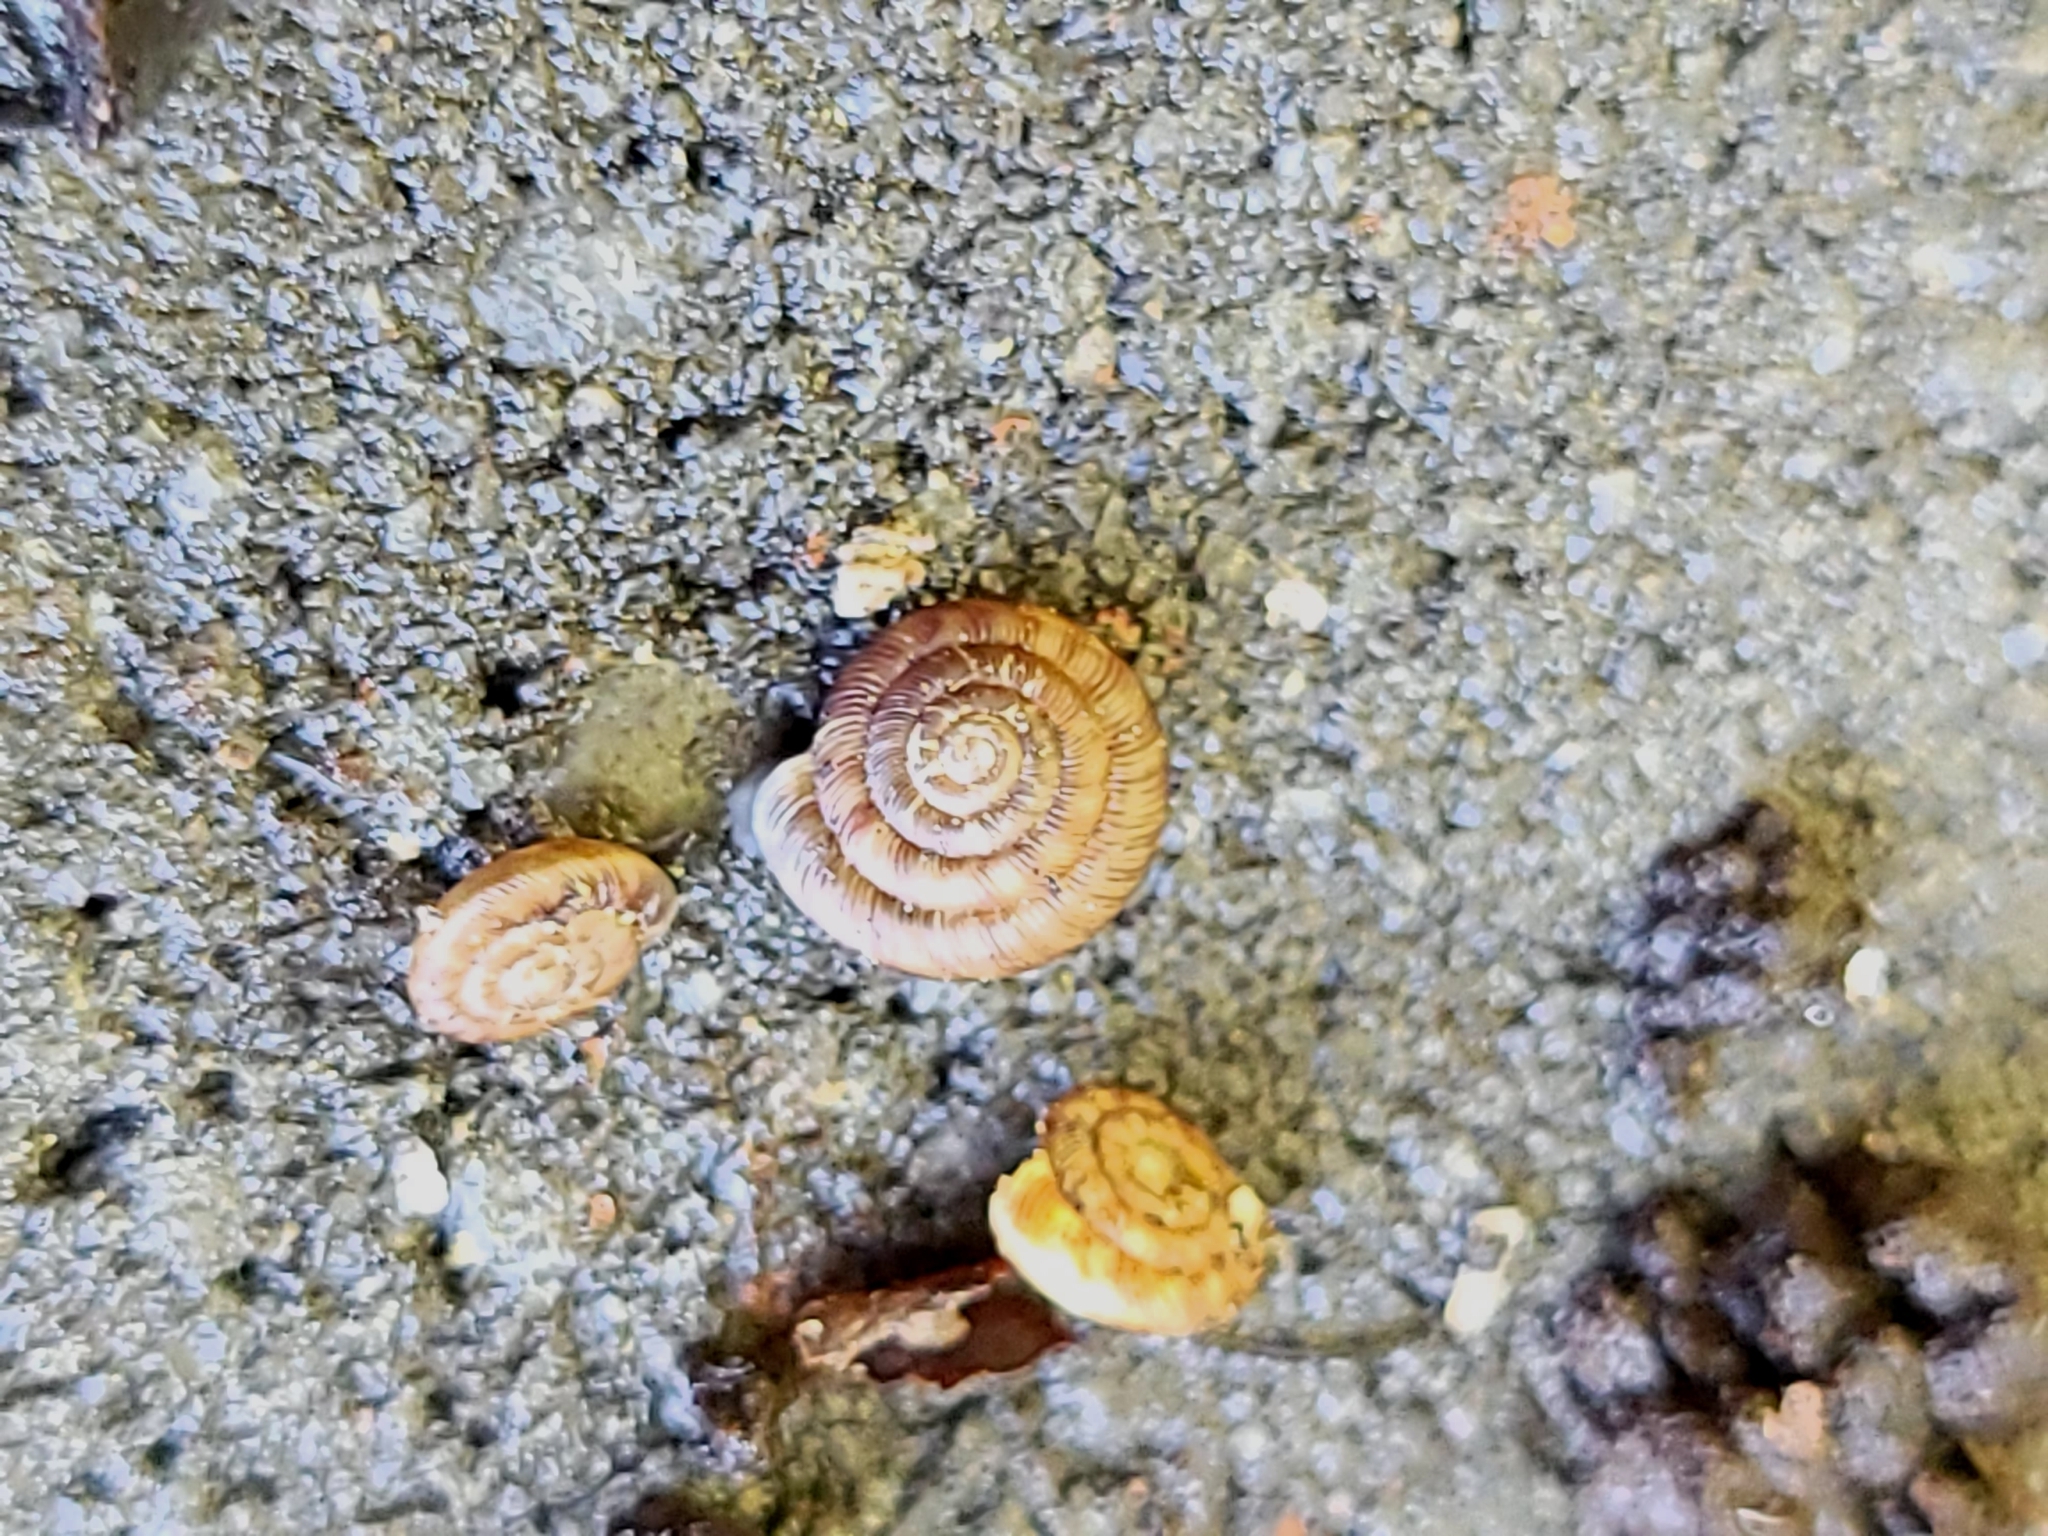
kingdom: Animalia
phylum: Mollusca
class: Gastropoda
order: Stylommatophora
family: Discidae
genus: Discus
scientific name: Discus rotundatus
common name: Rounded snail
